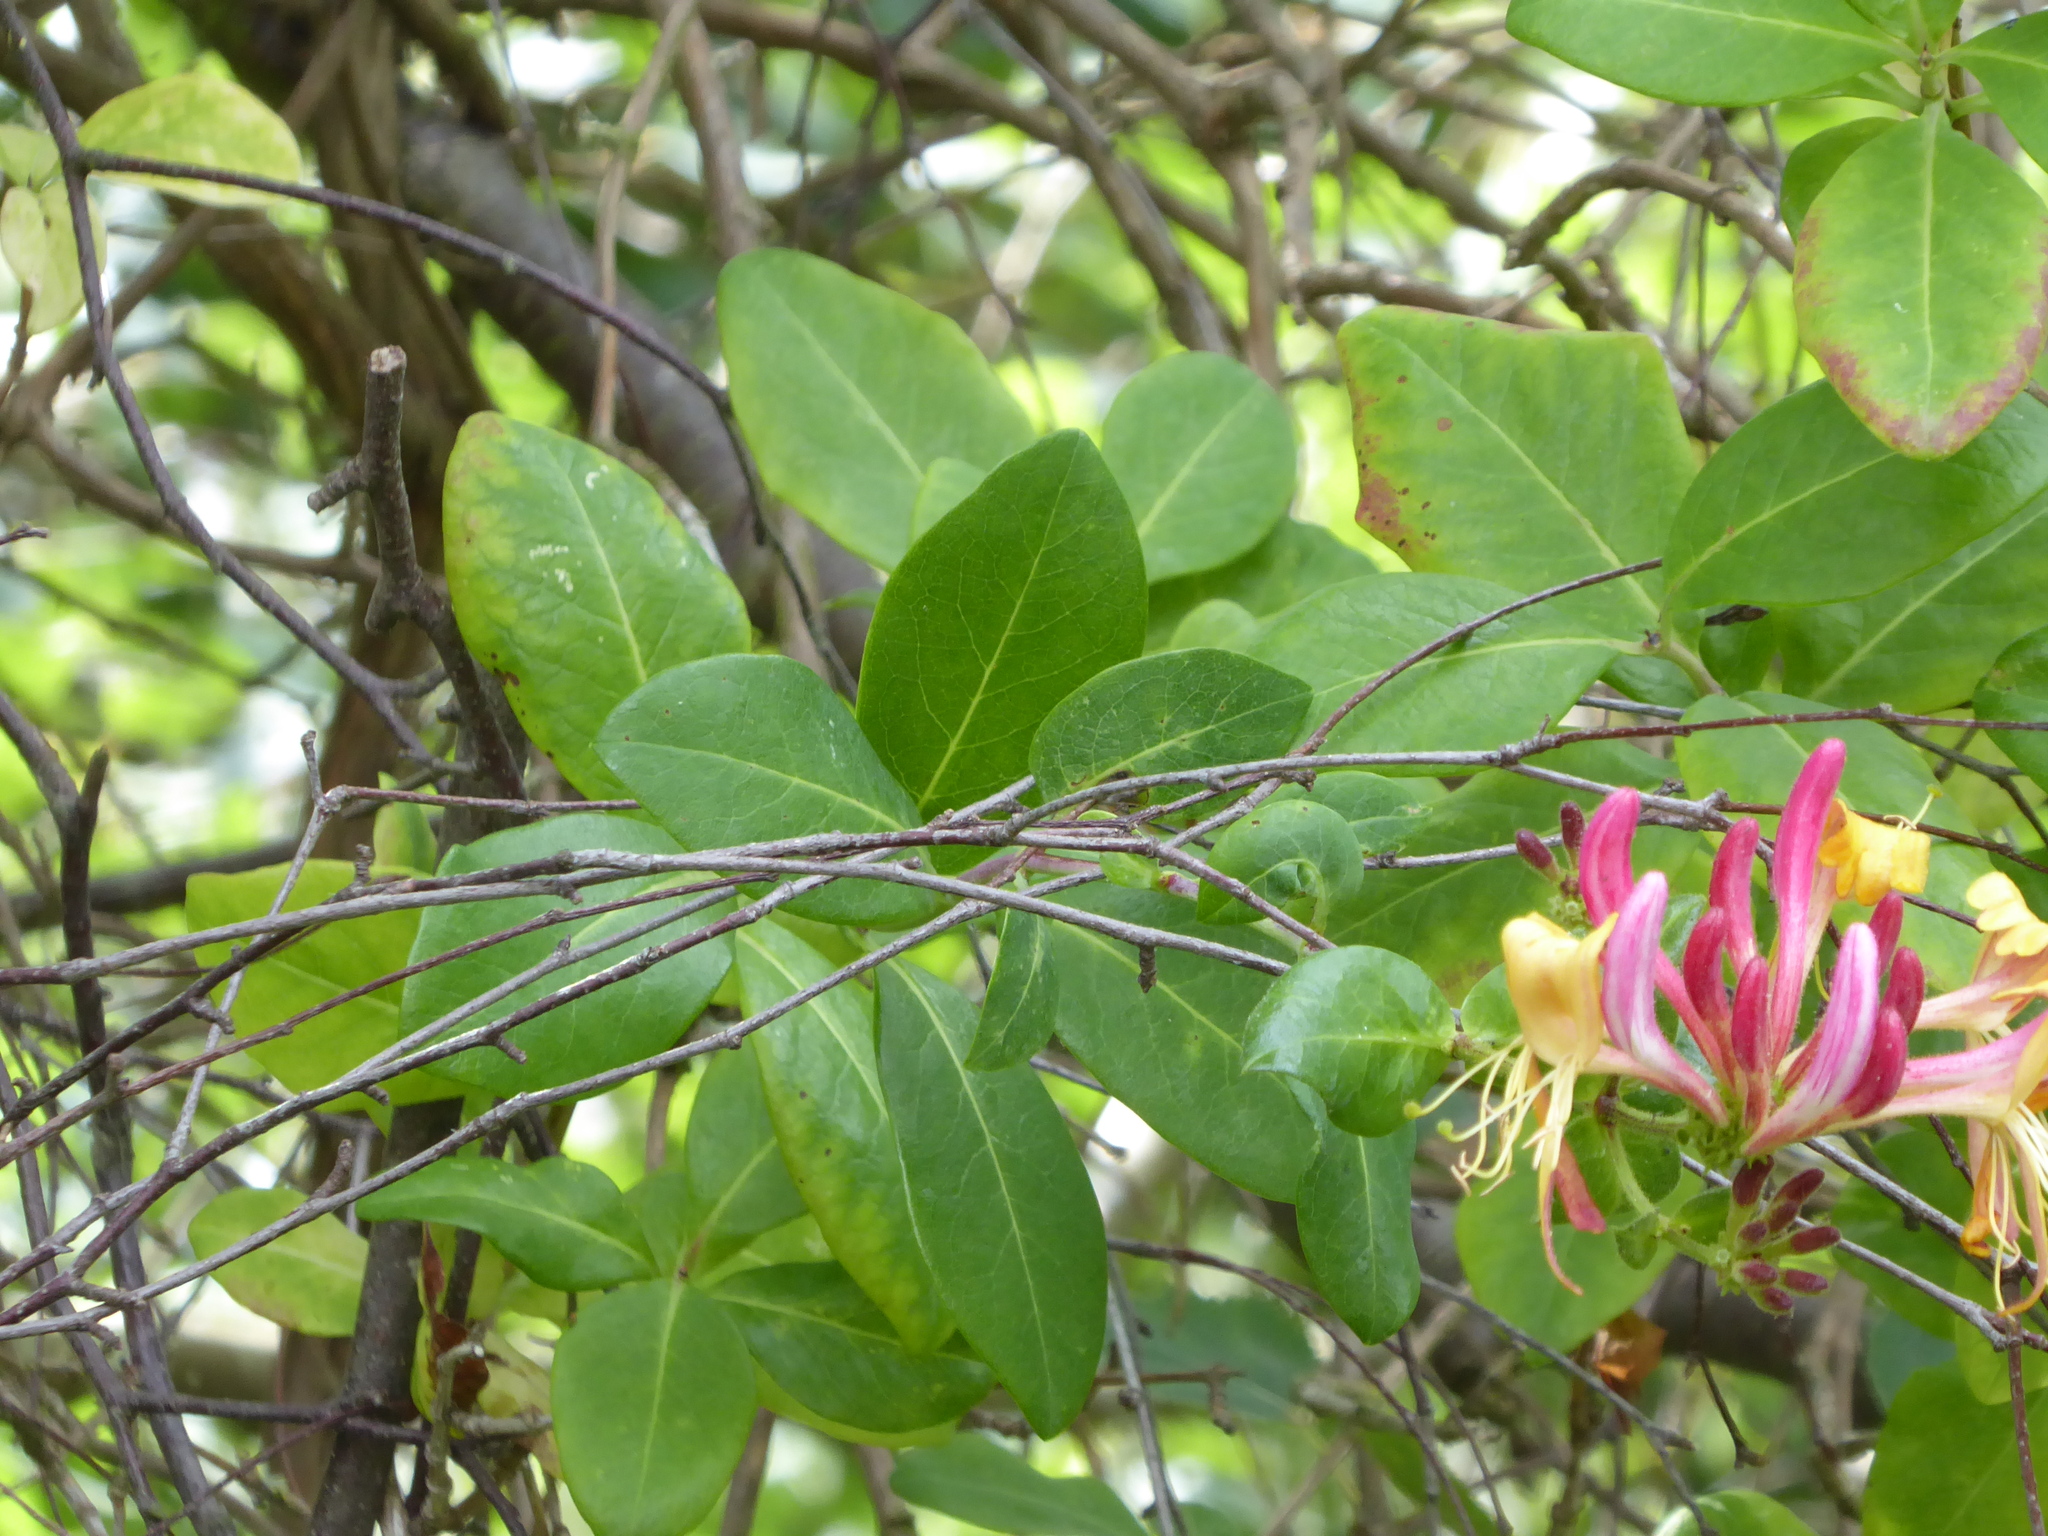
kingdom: Plantae
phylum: Tracheophyta
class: Magnoliopsida
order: Dipsacales
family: Caprifoliaceae
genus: Lonicera
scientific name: Lonicera periclymenum
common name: European honeysuckle
